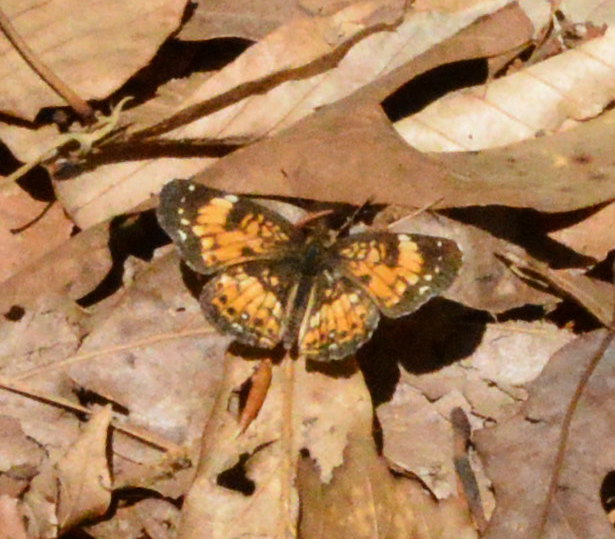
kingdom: Animalia
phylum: Arthropoda
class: Insecta
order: Lepidoptera
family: Nymphalidae
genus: Chlosyne
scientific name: Chlosyne nycteis
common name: Silvery checkerspot
